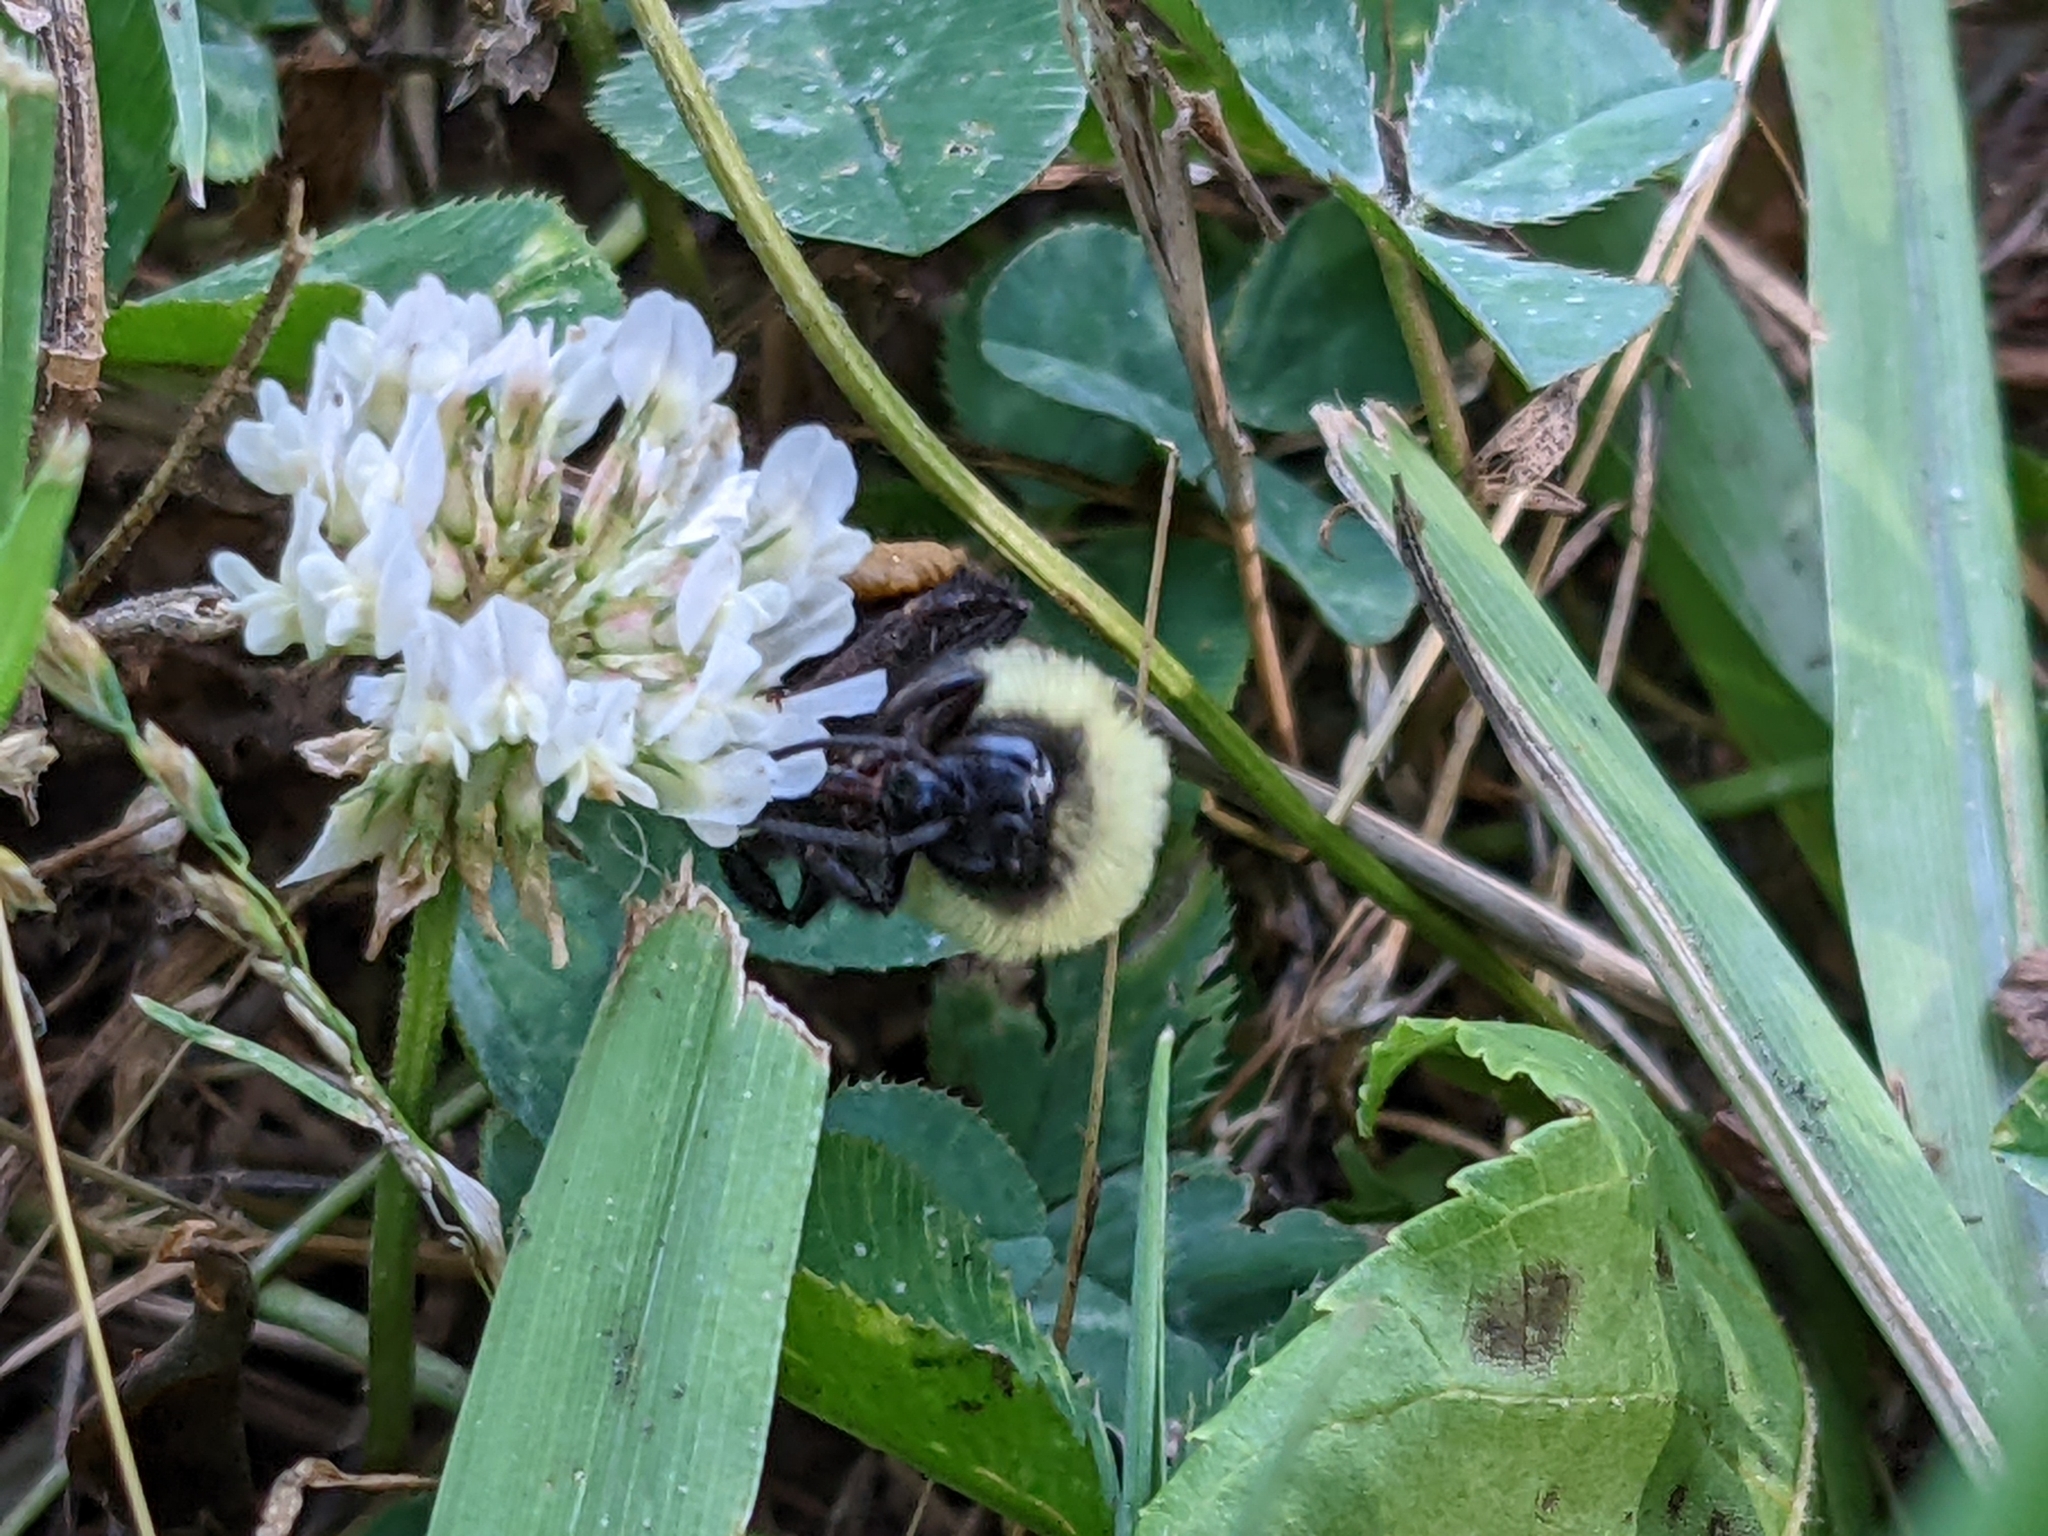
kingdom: Animalia
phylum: Arthropoda
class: Insecta
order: Hymenoptera
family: Apidae
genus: Bombus
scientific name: Bombus bimaculatus
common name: Two-spotted bumble bee
